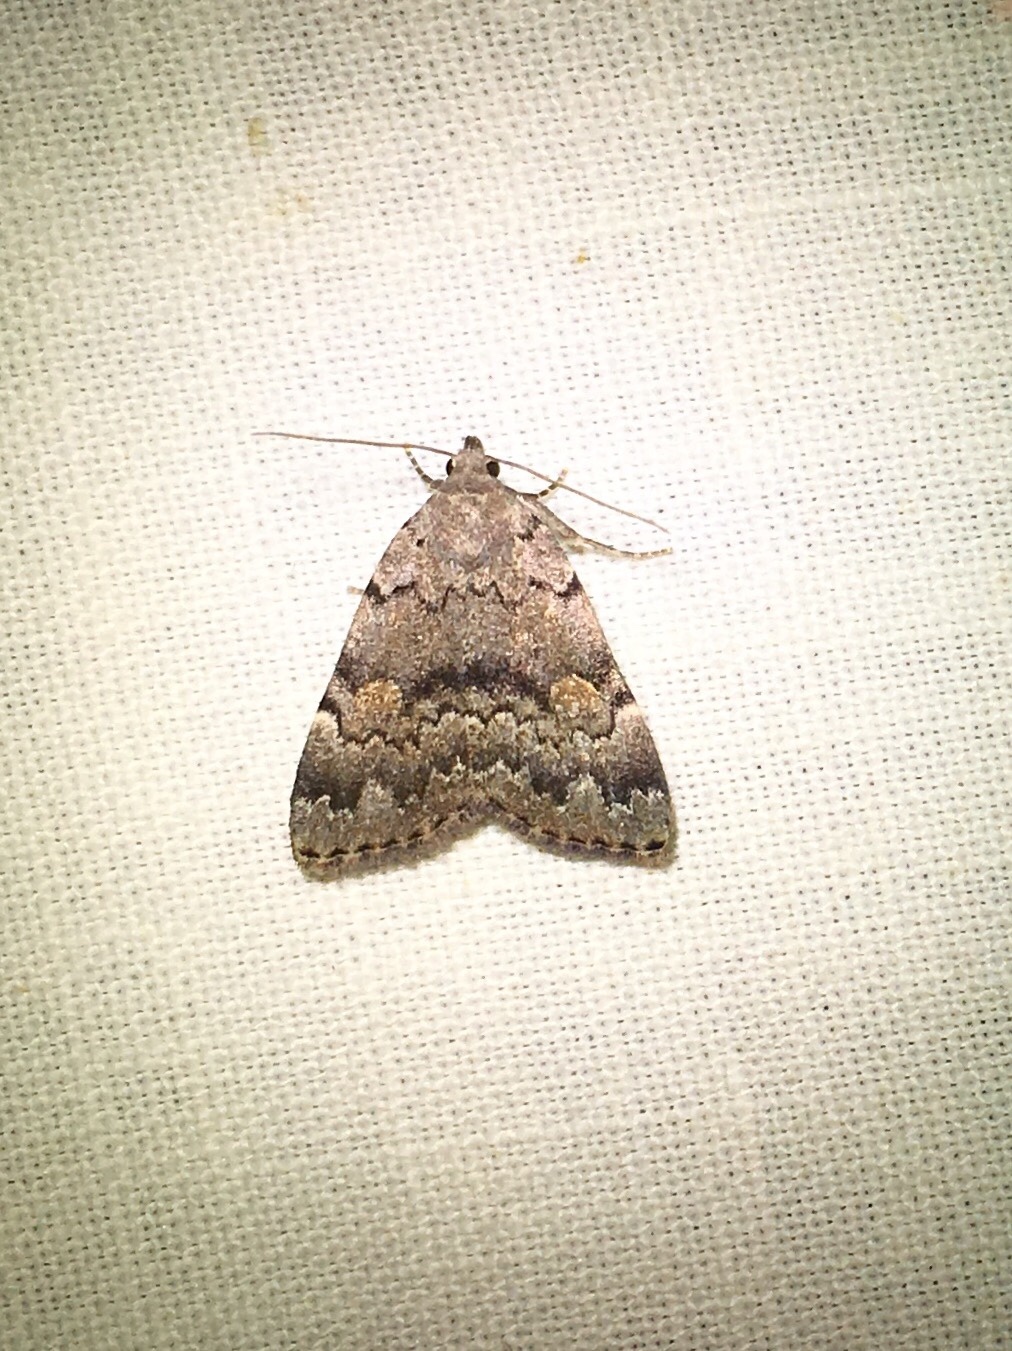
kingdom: Animalia
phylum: Arthropoda
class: Insecta
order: Lepidoptera
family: Erebidae
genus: Idia
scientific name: Idia aemula
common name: Common idia moth
